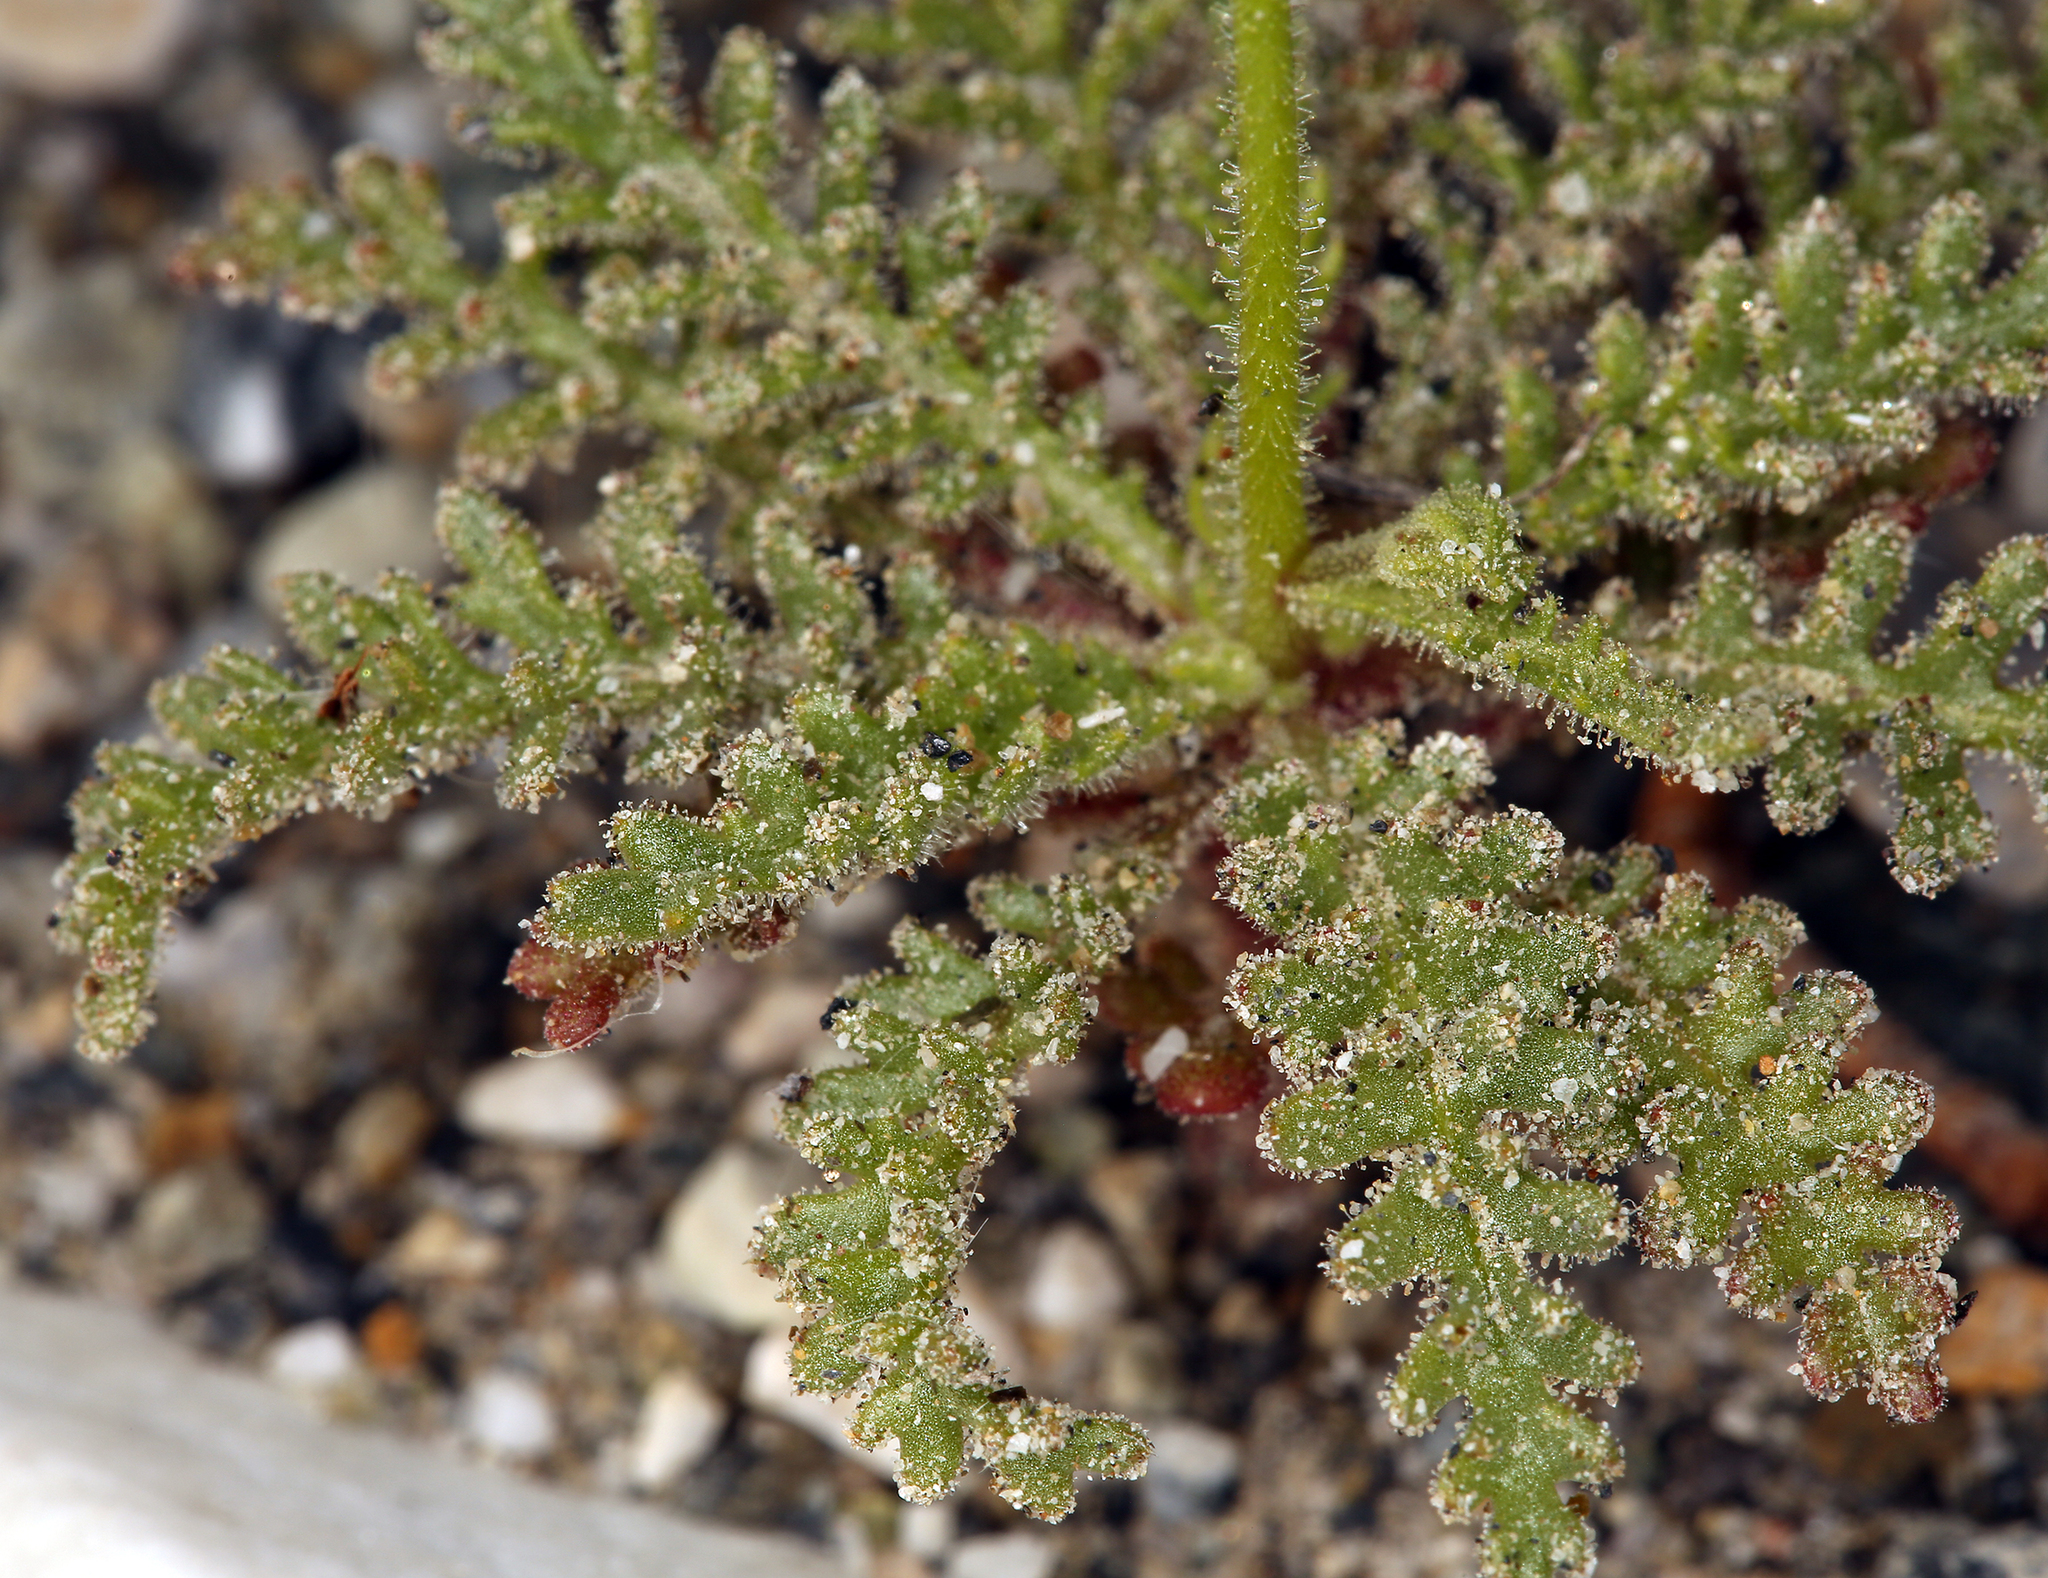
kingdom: Plantae
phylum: Tracheophyta
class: Magnoliopsida
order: Ericales
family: Polemoniaceae
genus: Aliciella
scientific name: Aliciella hutchinsifolia
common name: Desert pale gilia
